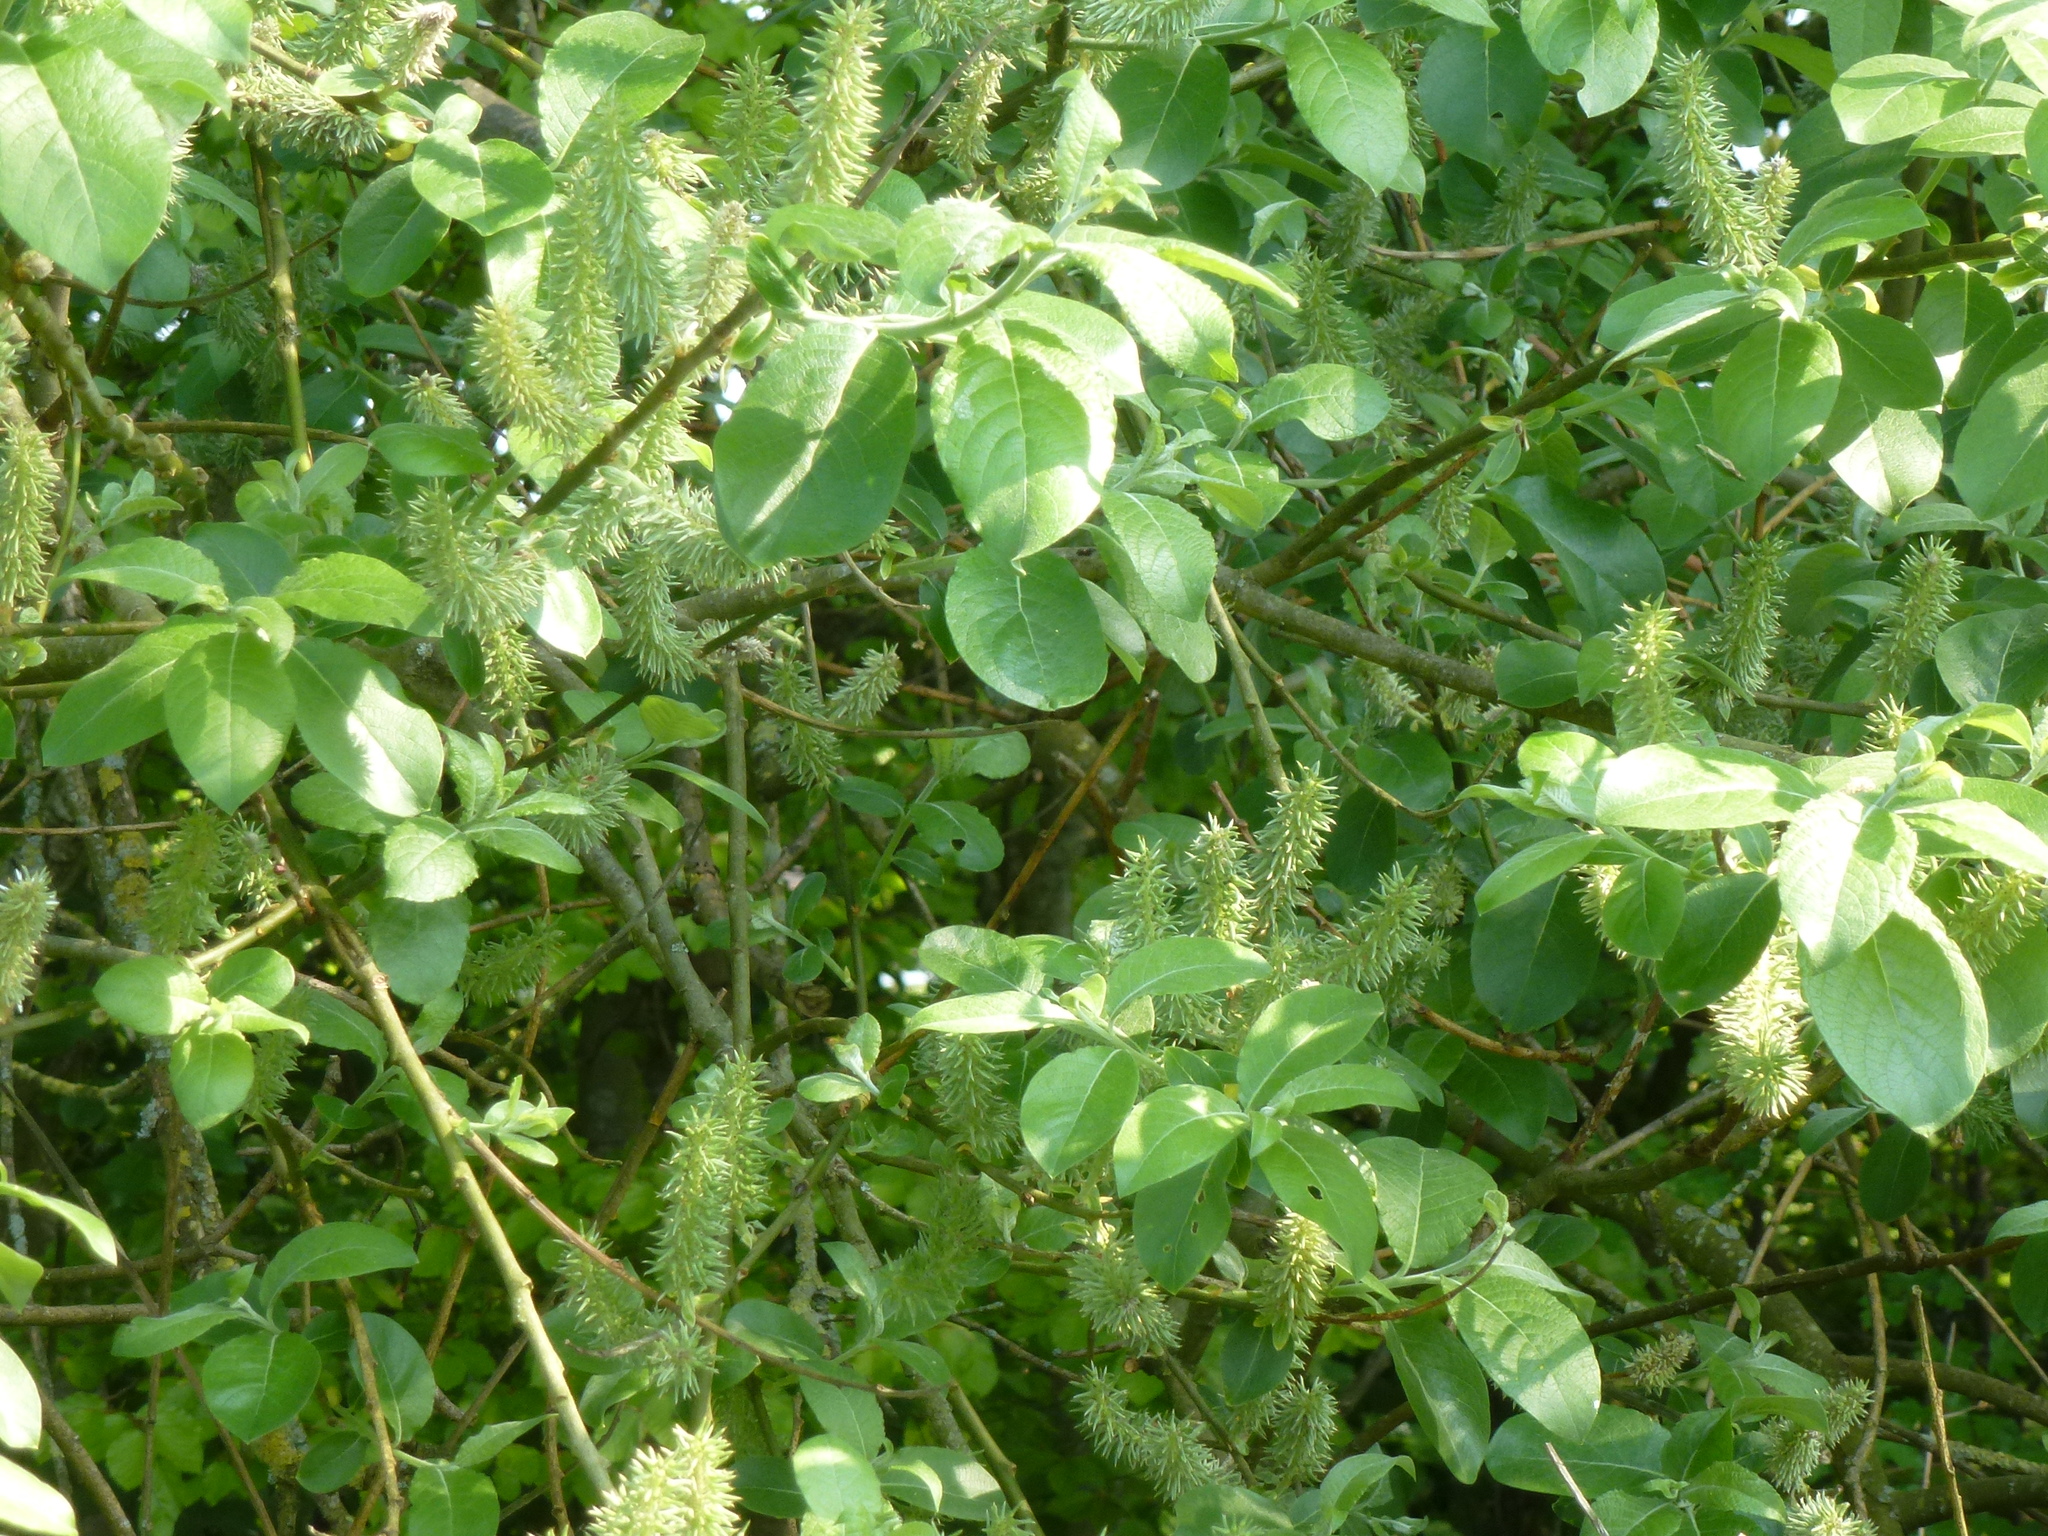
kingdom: Plantae
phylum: Tracheophyta
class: Magnoliopsida
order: Malpighiales
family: Salicaceae
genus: Salix
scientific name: Salix caprea
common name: Goat willow
